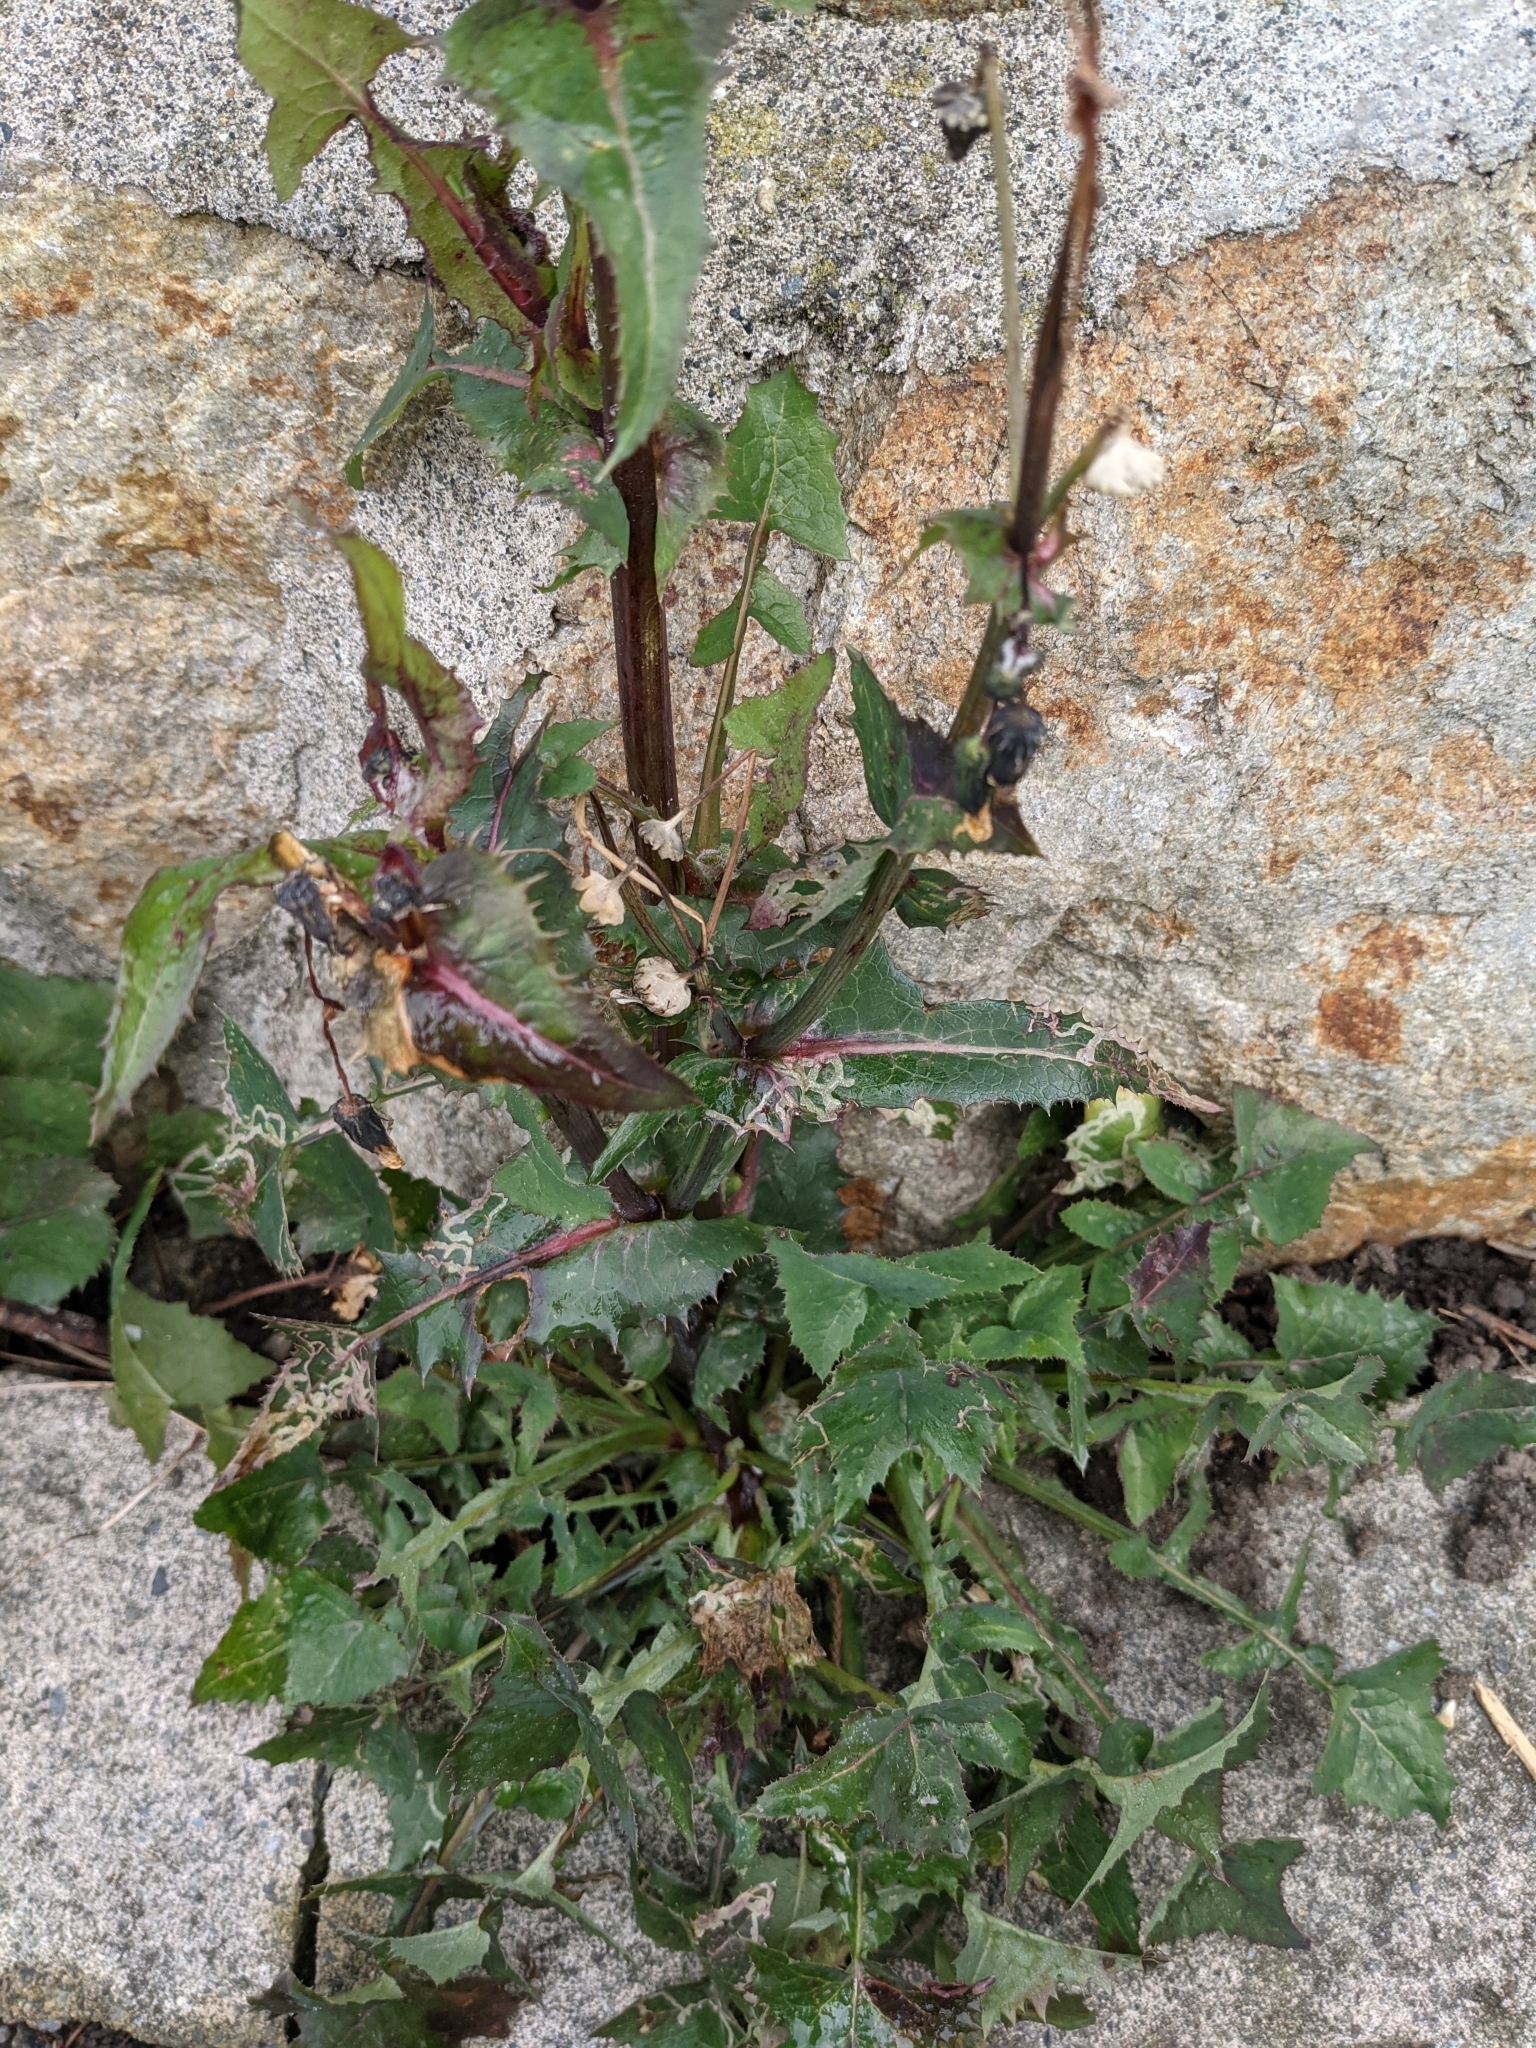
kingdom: Plantae
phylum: Tracheophyta
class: Magnoliopsida
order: Asterales
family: Asteraceae
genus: Sonchus
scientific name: Sonchus asper
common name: Prickly sow-thistle
